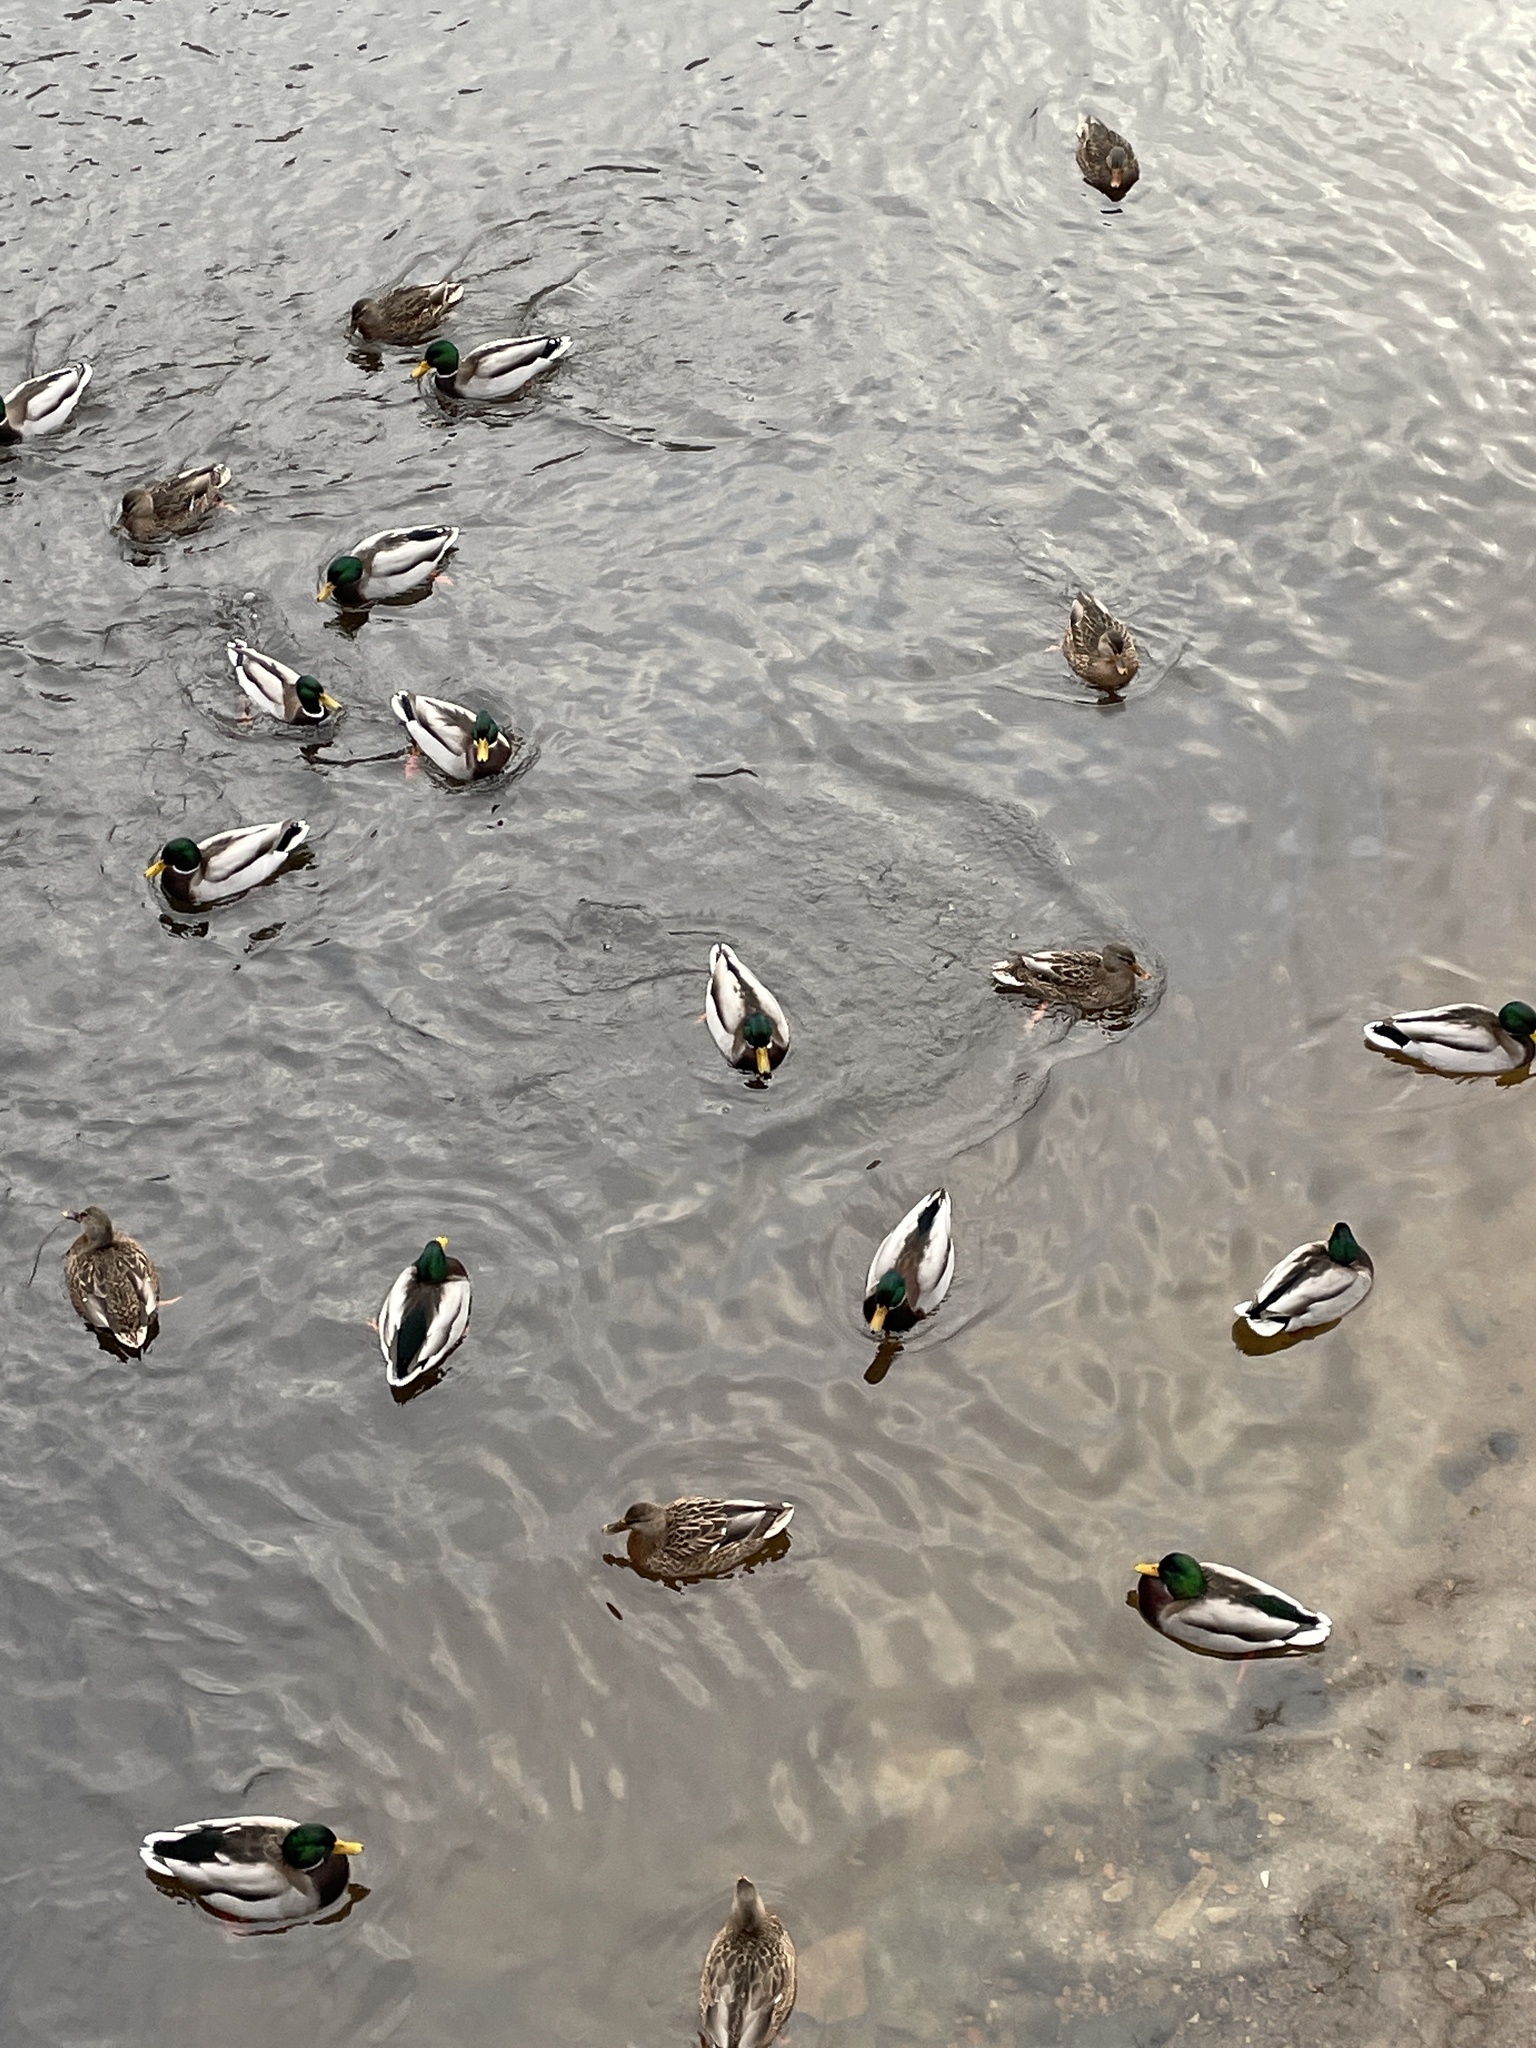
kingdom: Animalia
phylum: Chordata
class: Aves
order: Anseriformes
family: Anatidae
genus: Anas
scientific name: Anas platyrhynchos
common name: Mallard
